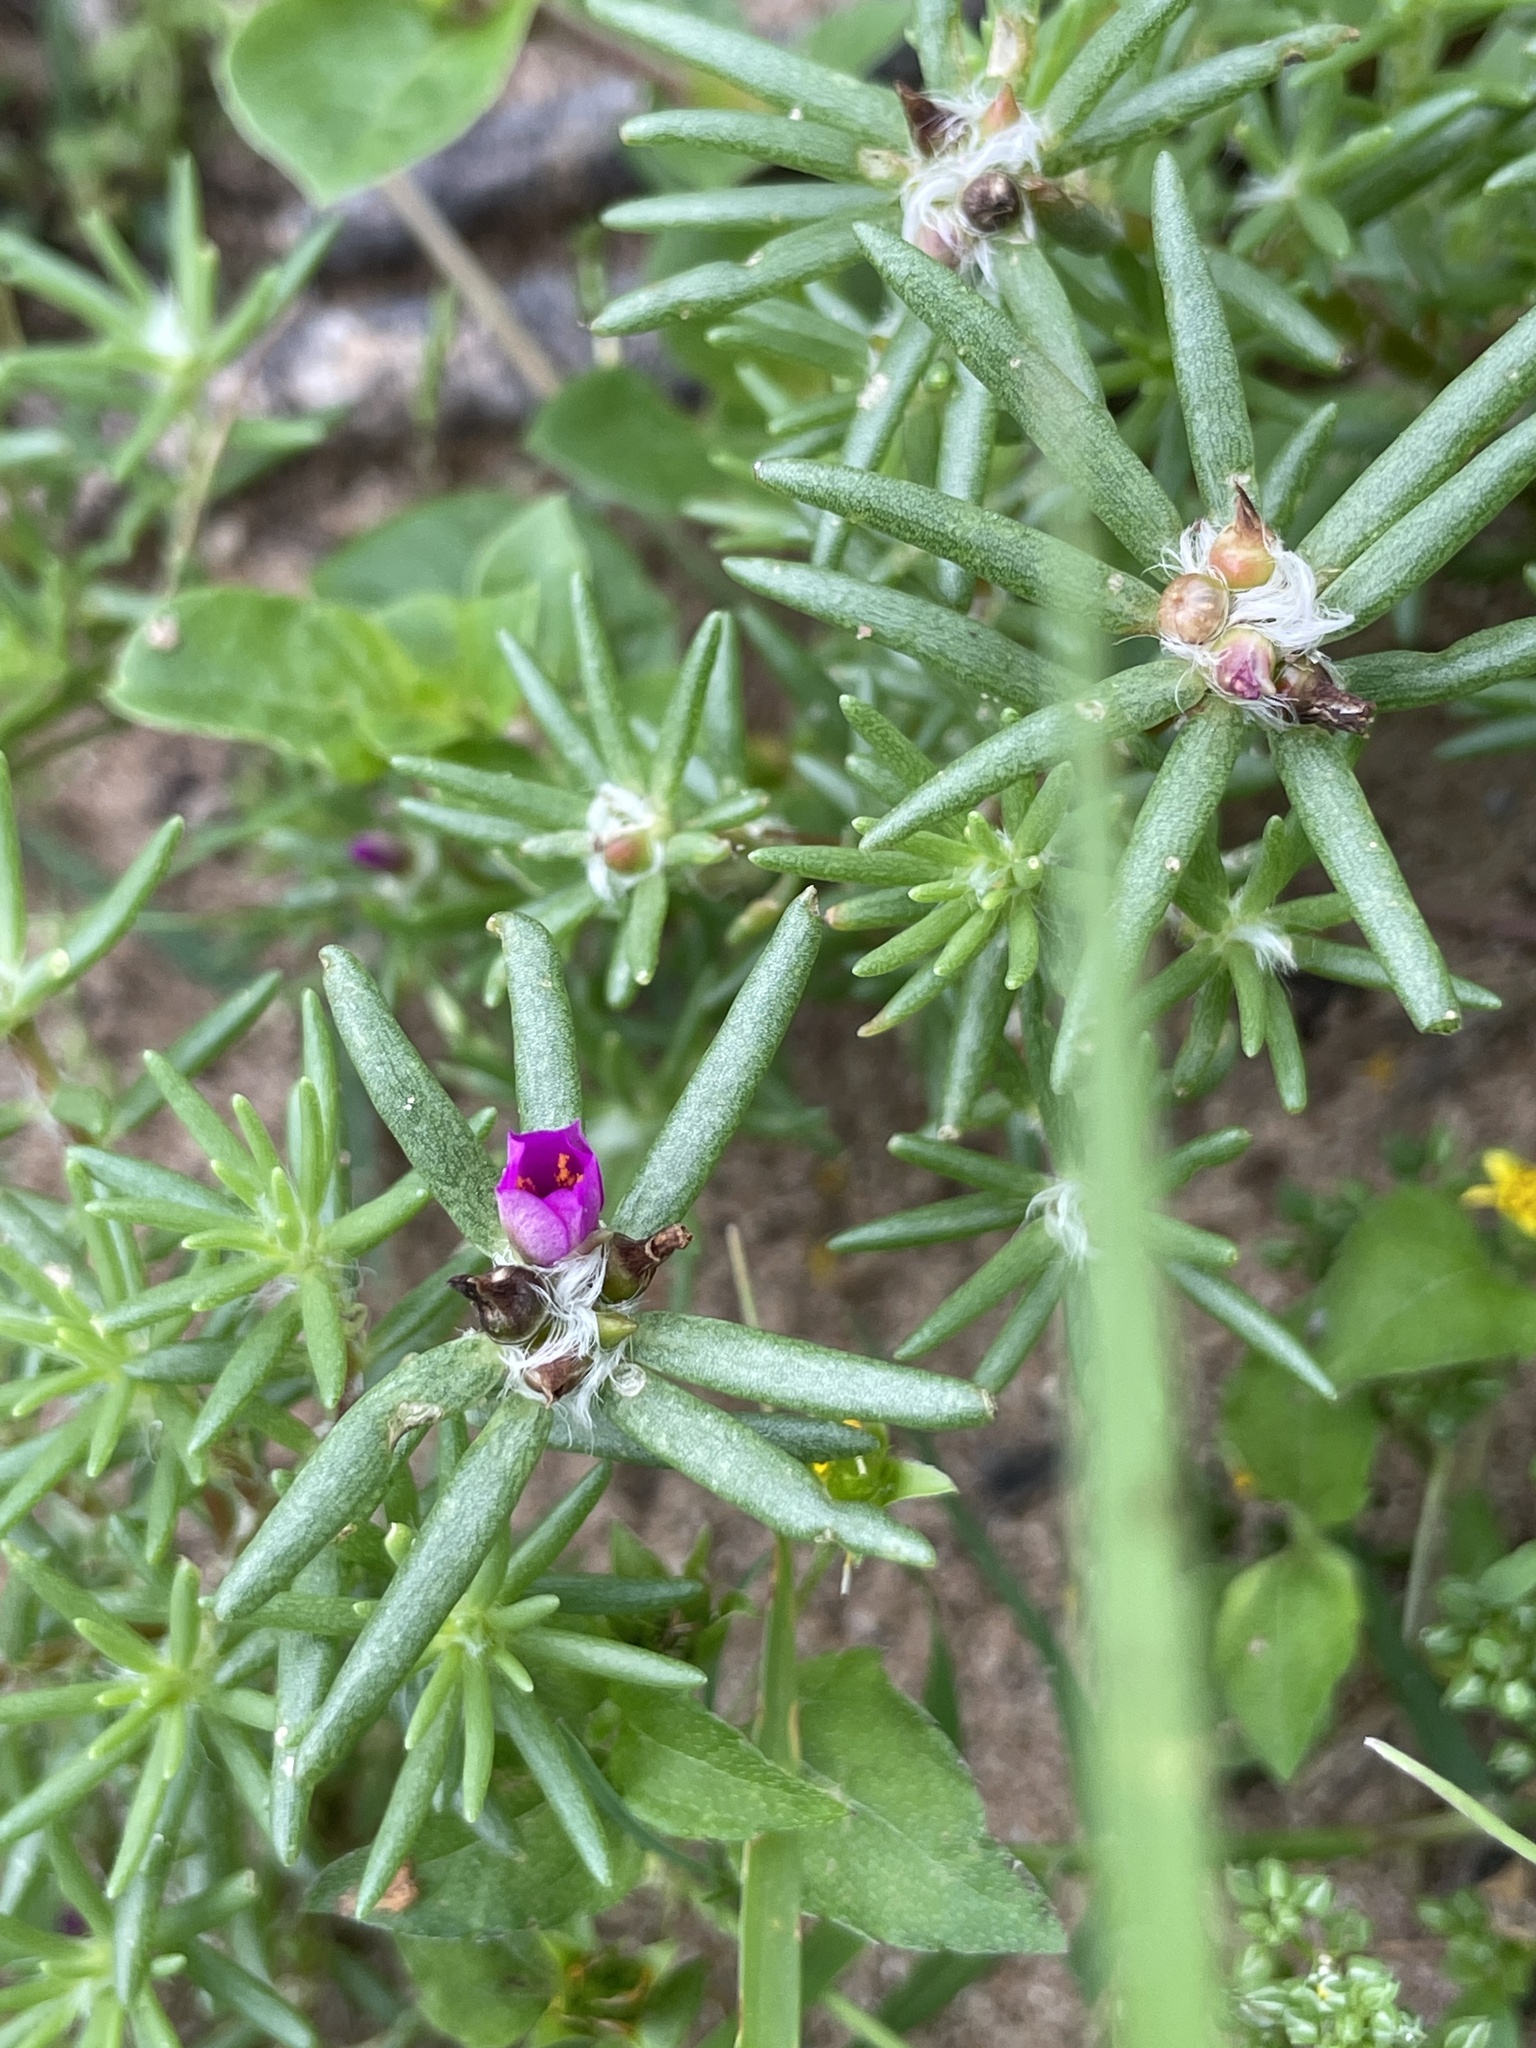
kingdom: Plantae
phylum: Tracheophyta
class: Magnoliopsida
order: Caryophyllales
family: Portulacaceae
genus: Portulaca
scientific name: Portulaca pilosa
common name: Kiss me quick
